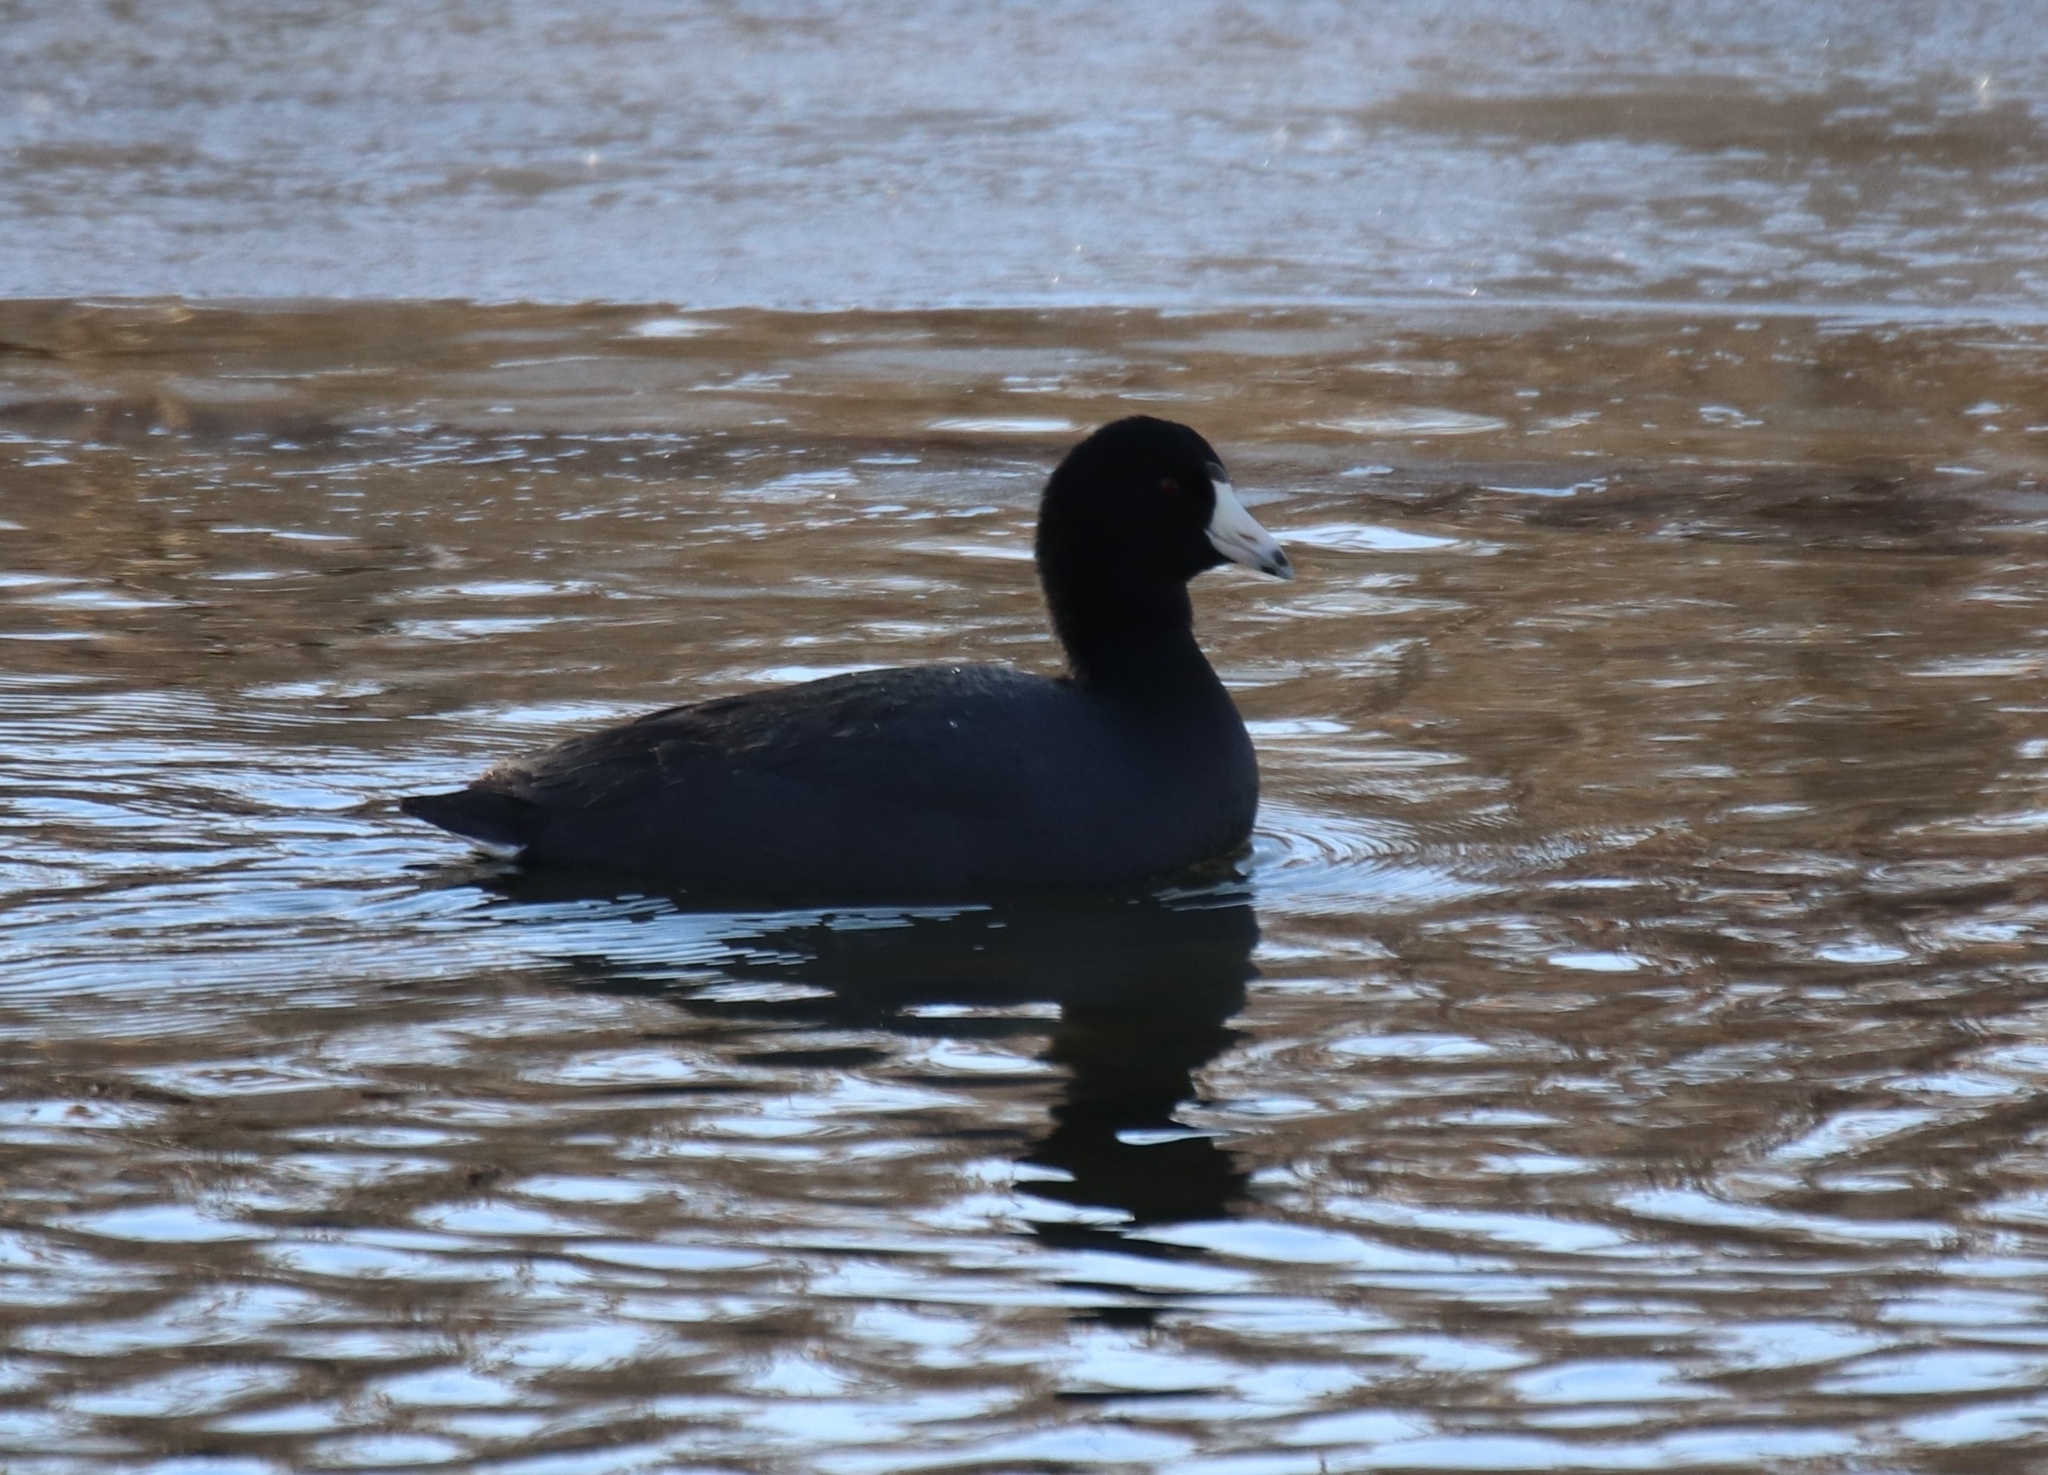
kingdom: Animalia
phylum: Chordata
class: Aves
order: Gruiformes
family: Rallidae
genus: Fulica
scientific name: Fulica americana
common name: American coot
